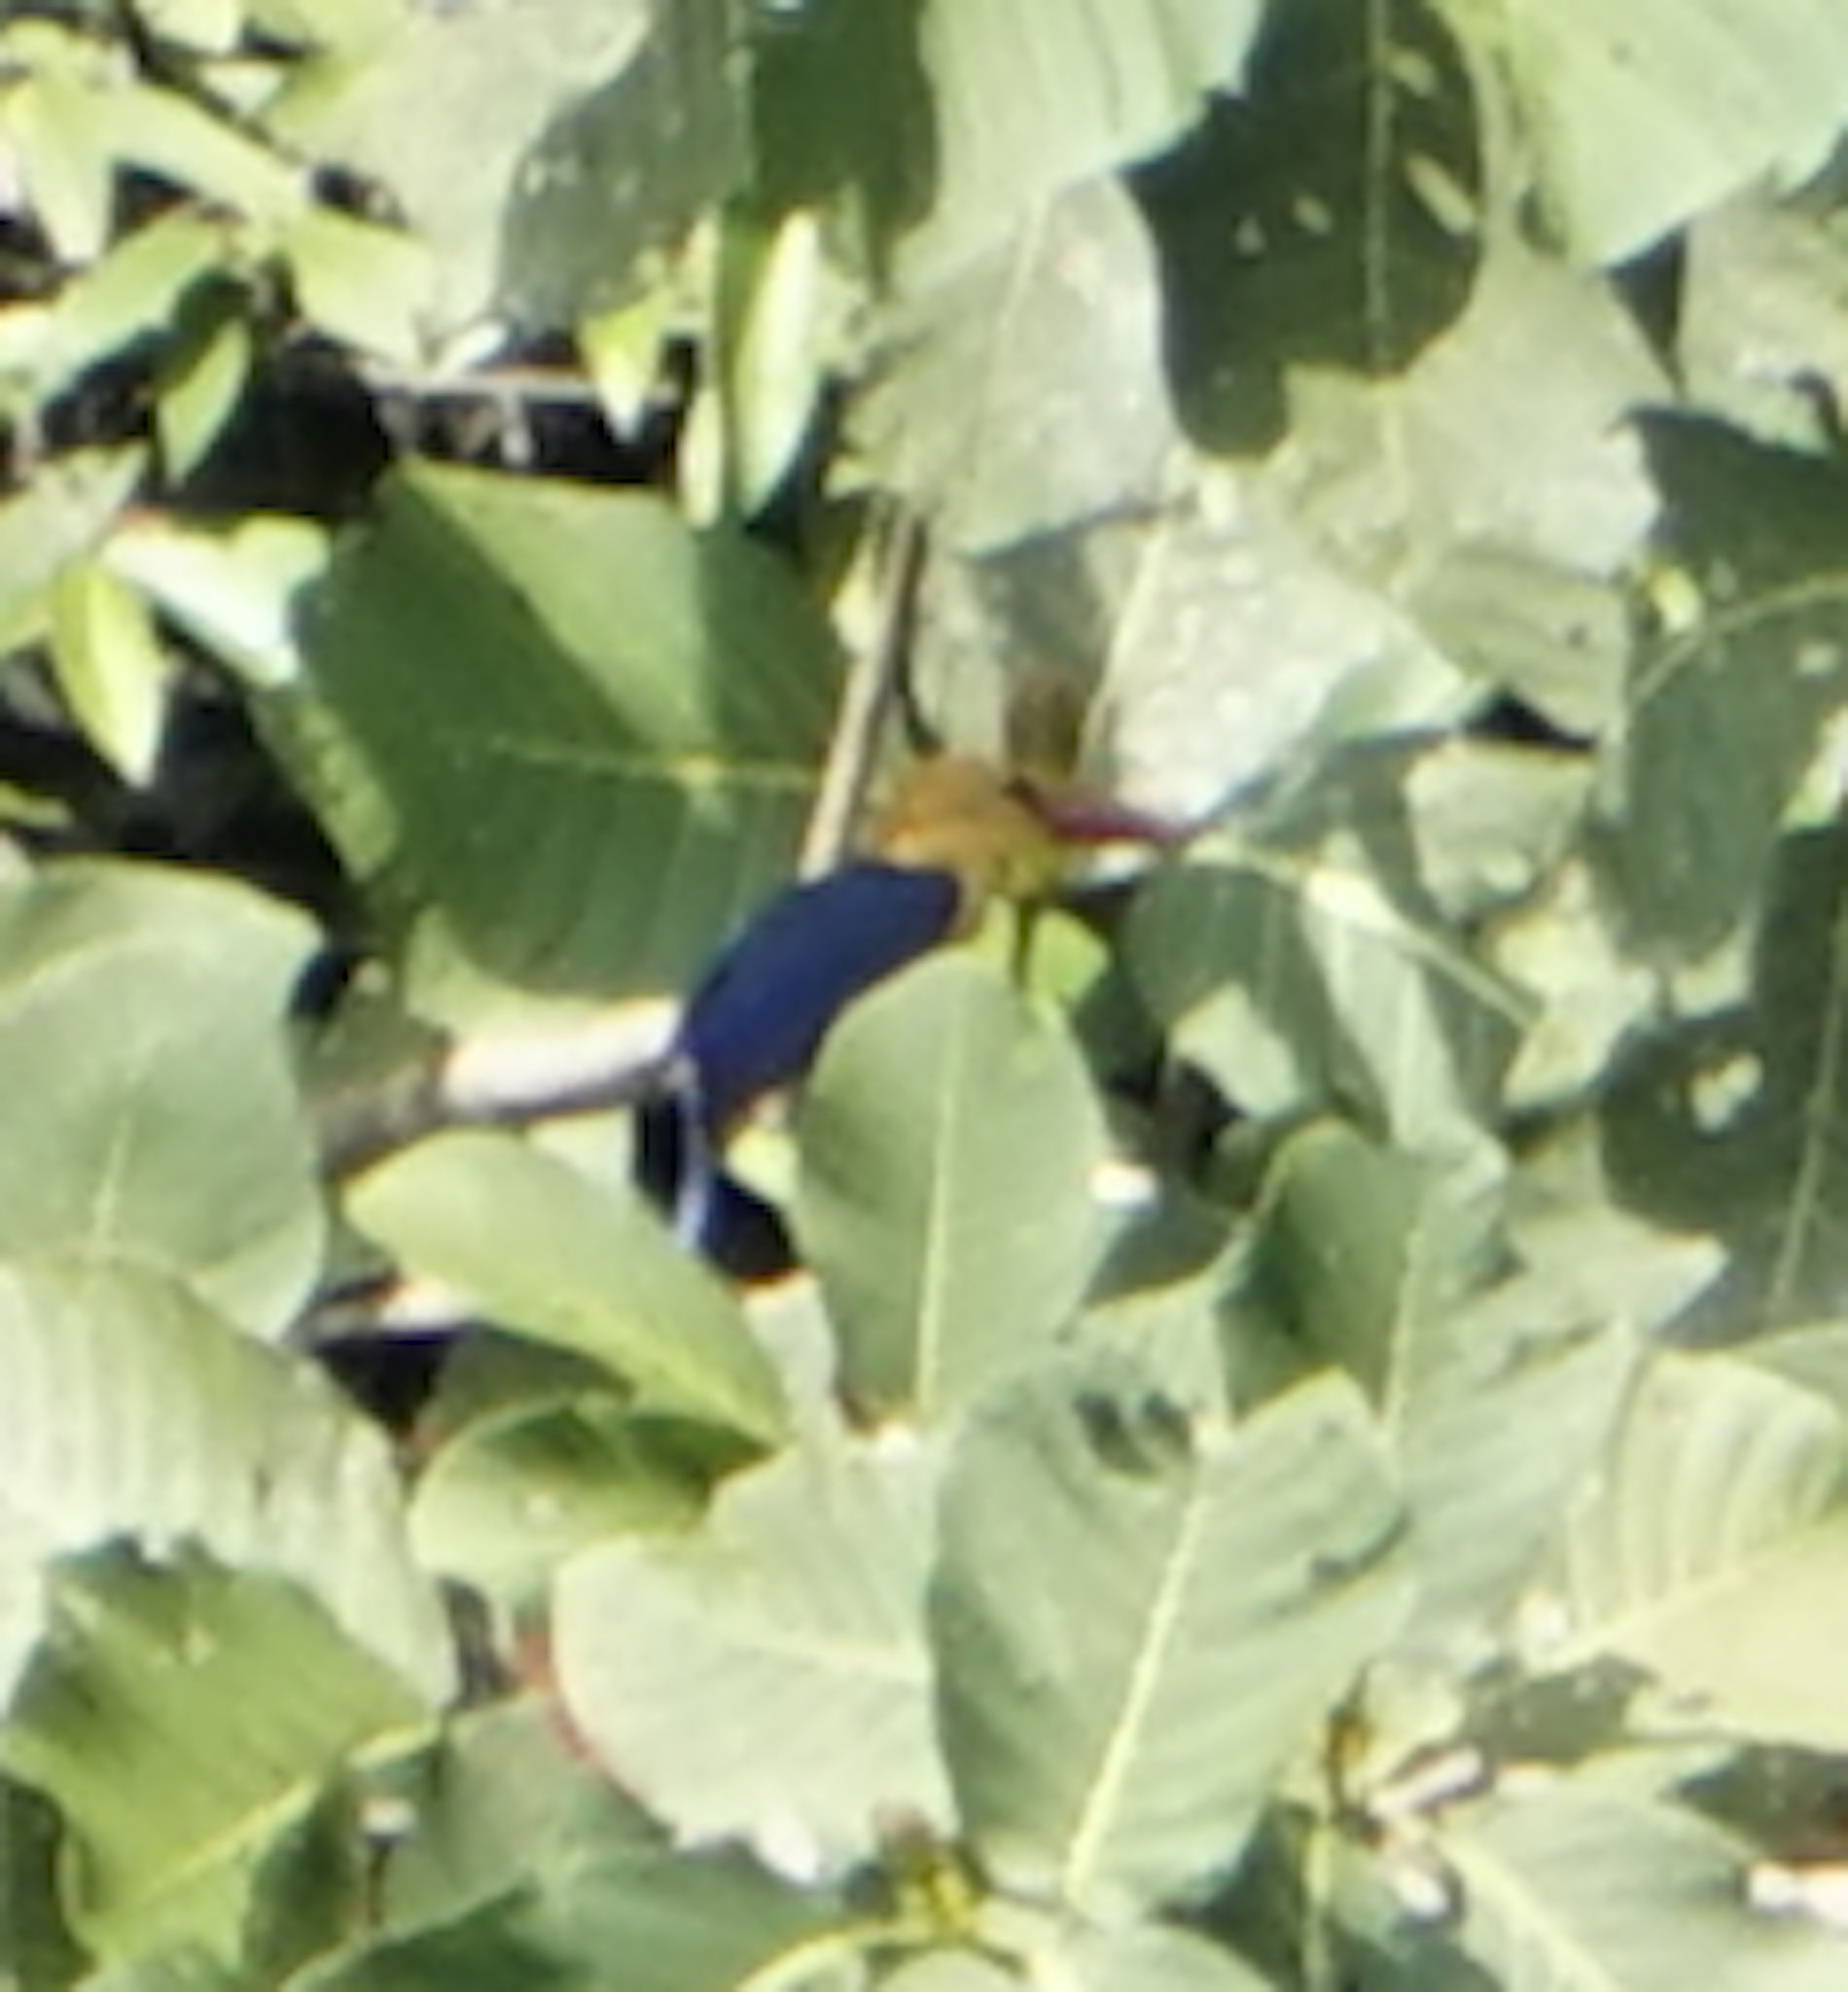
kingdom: Animalia
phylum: Chordata
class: Aves
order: Coraciiformes
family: Alcedinidae
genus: Pelargopsis
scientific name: Pelargopsis capensis
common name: Stork-billed kingfisher
